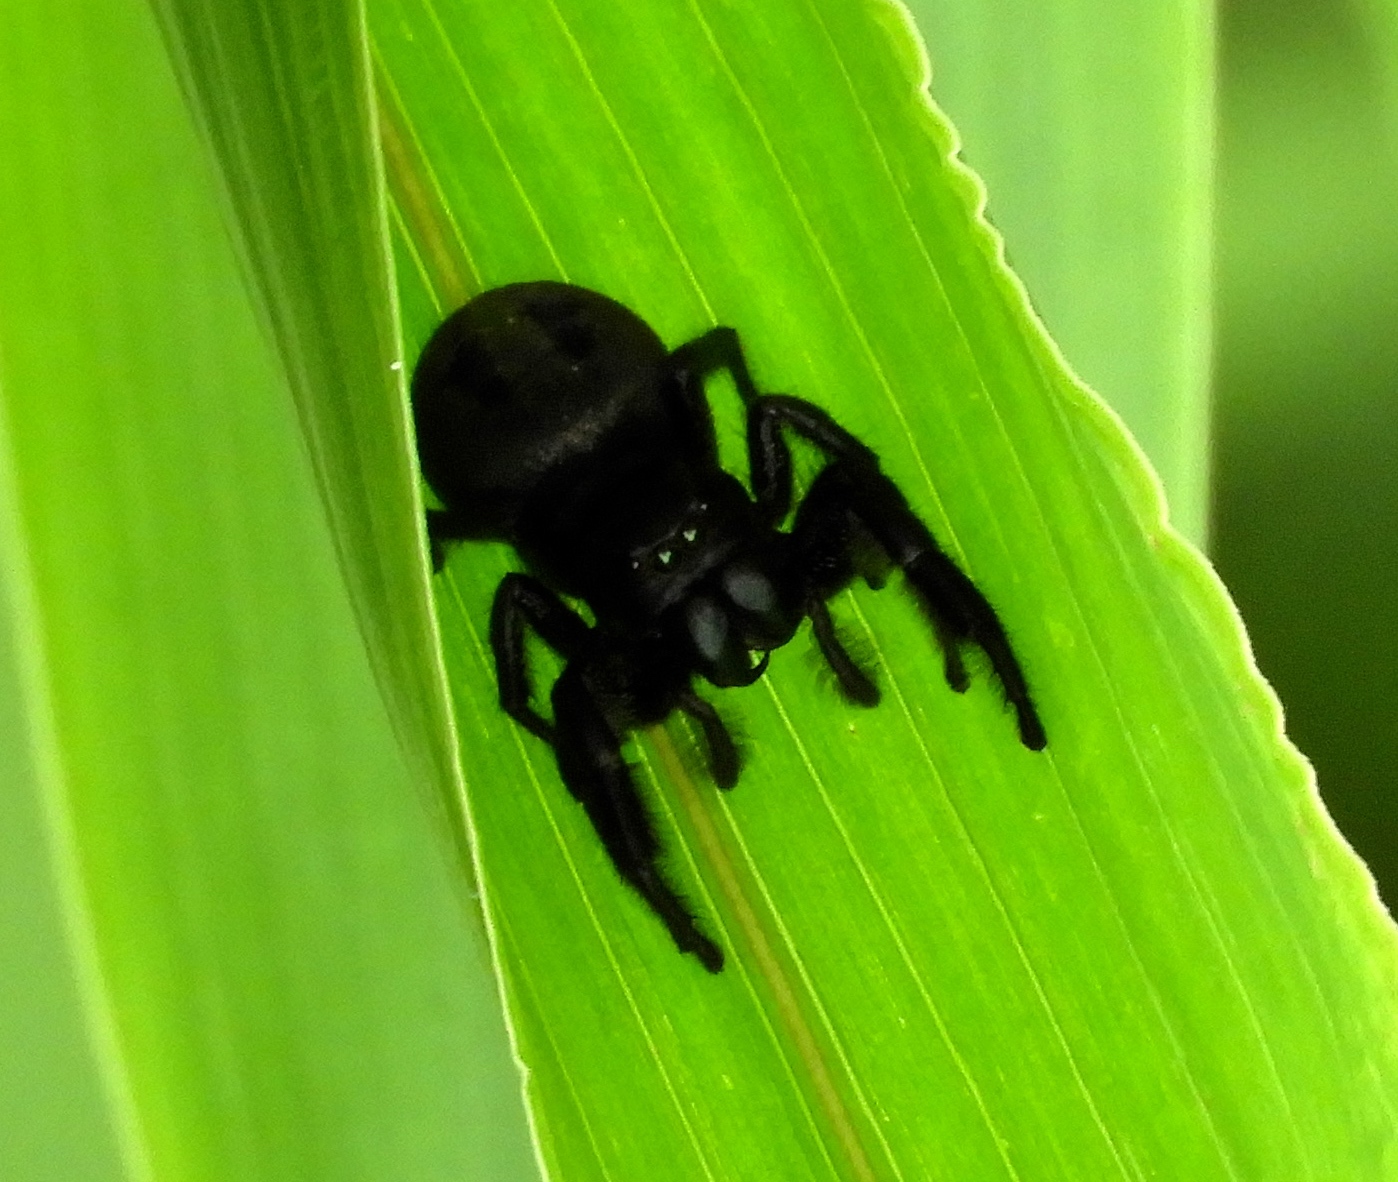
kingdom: Animalia
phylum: Arthropoda
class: Arachnida
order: Araneae
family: Salticidae
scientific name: Salticidae
